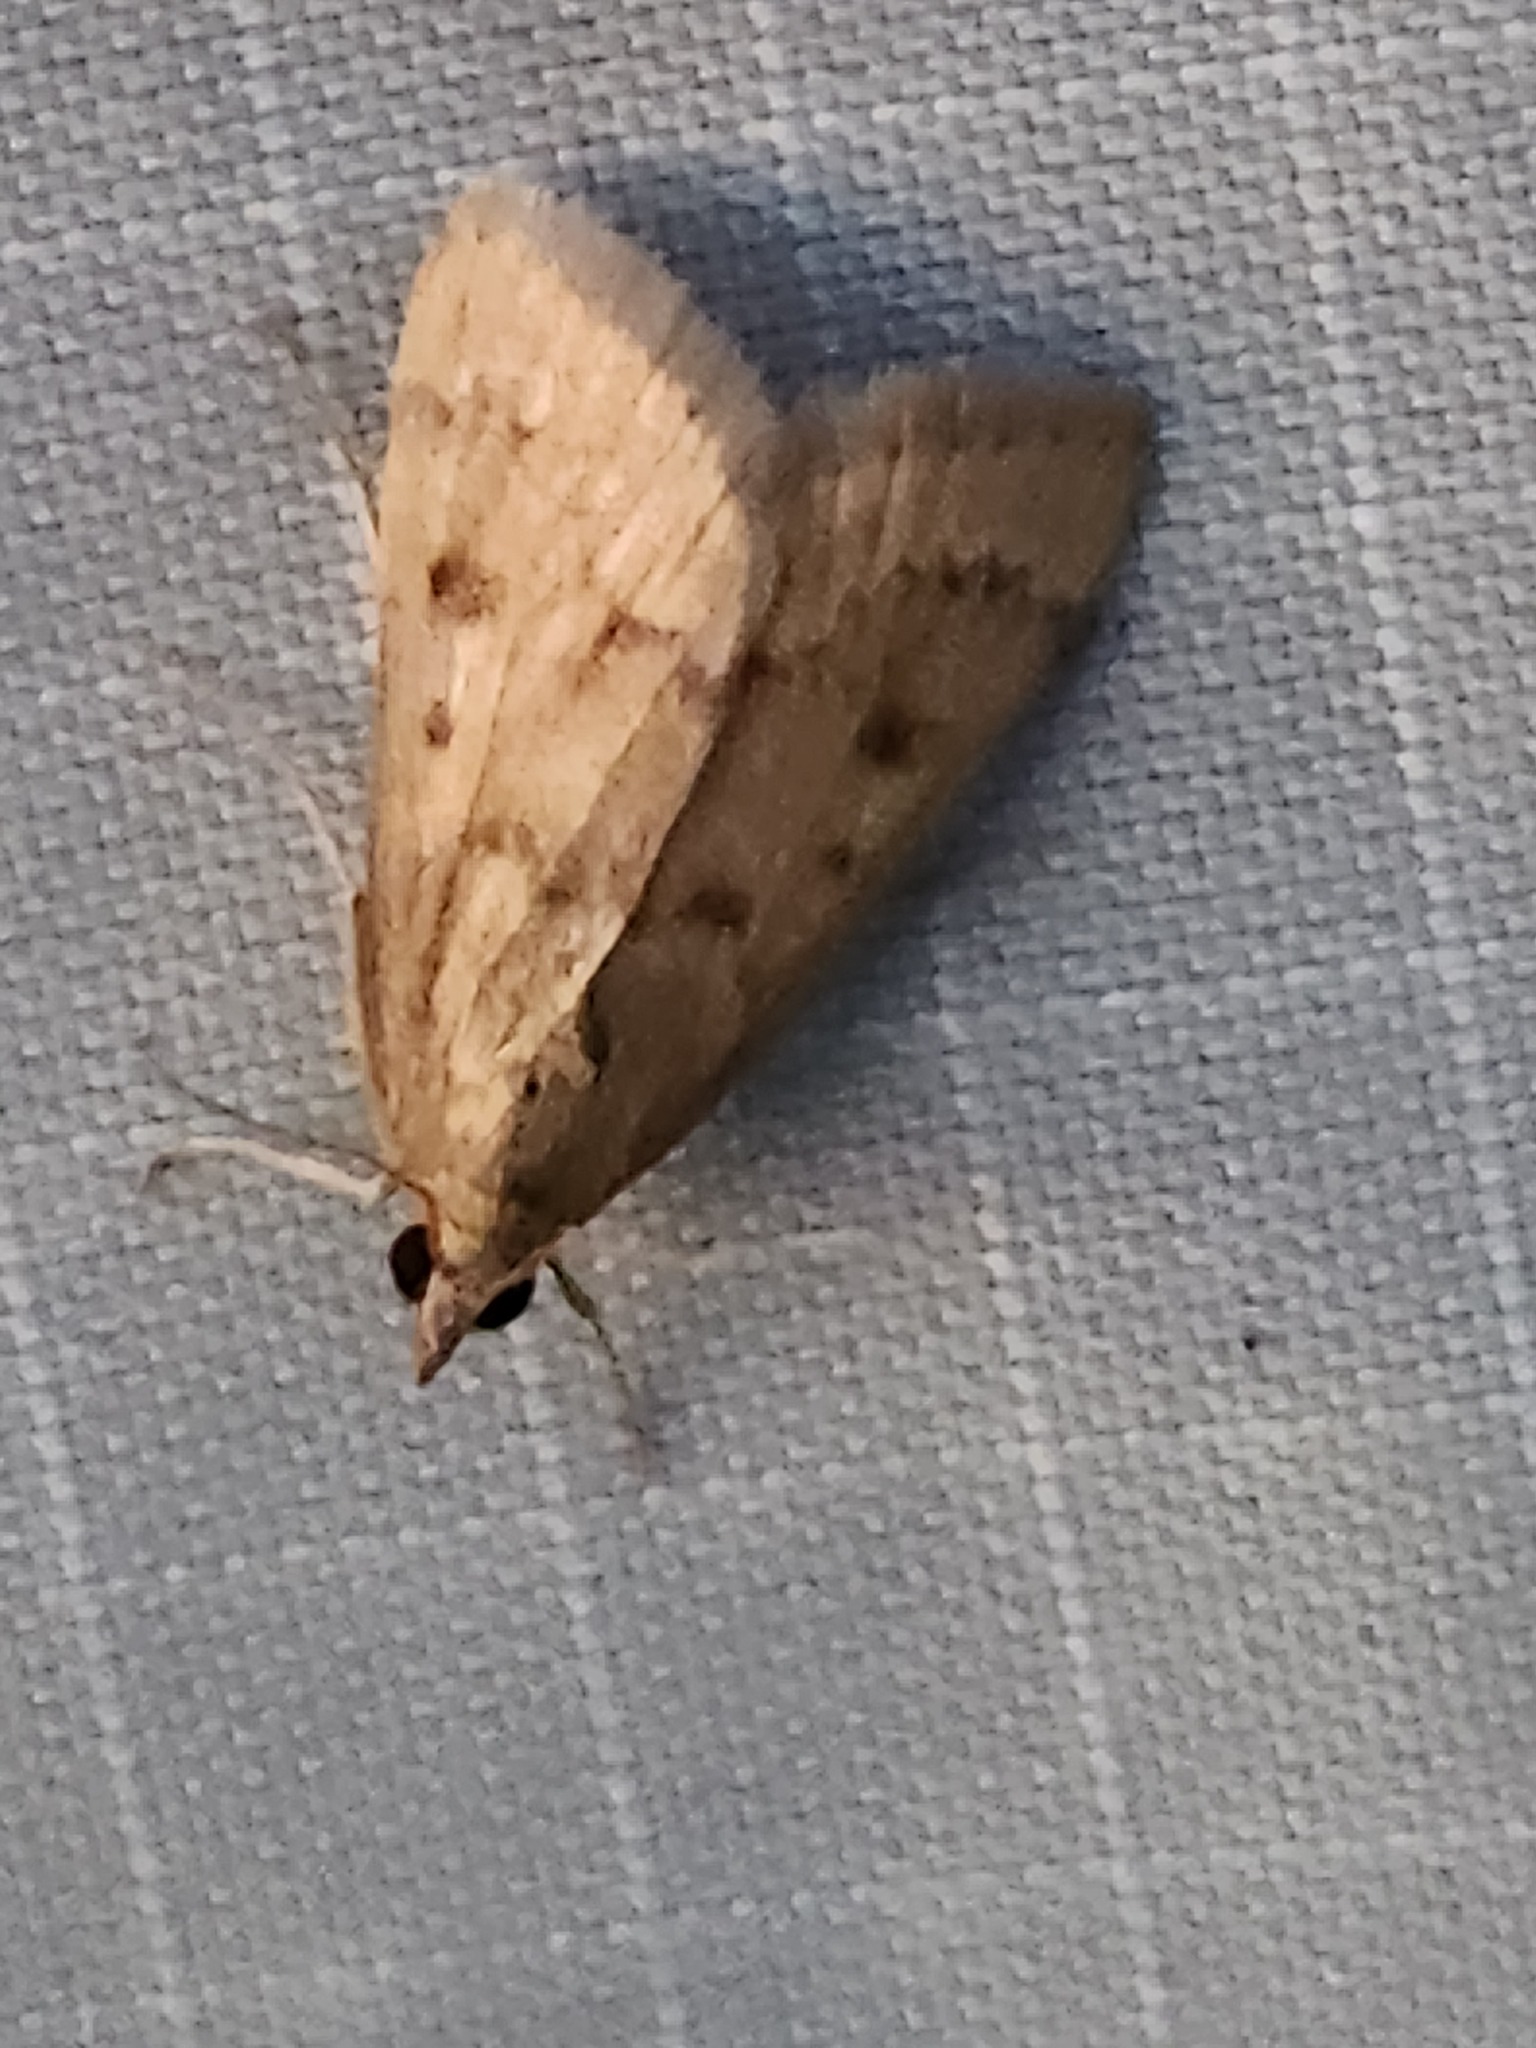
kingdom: Animalia
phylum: Arthropoda
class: Insecta
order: Lepidoptera
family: Crambidae
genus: Achyra
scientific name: Achyra rantalis
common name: Garden webworm
